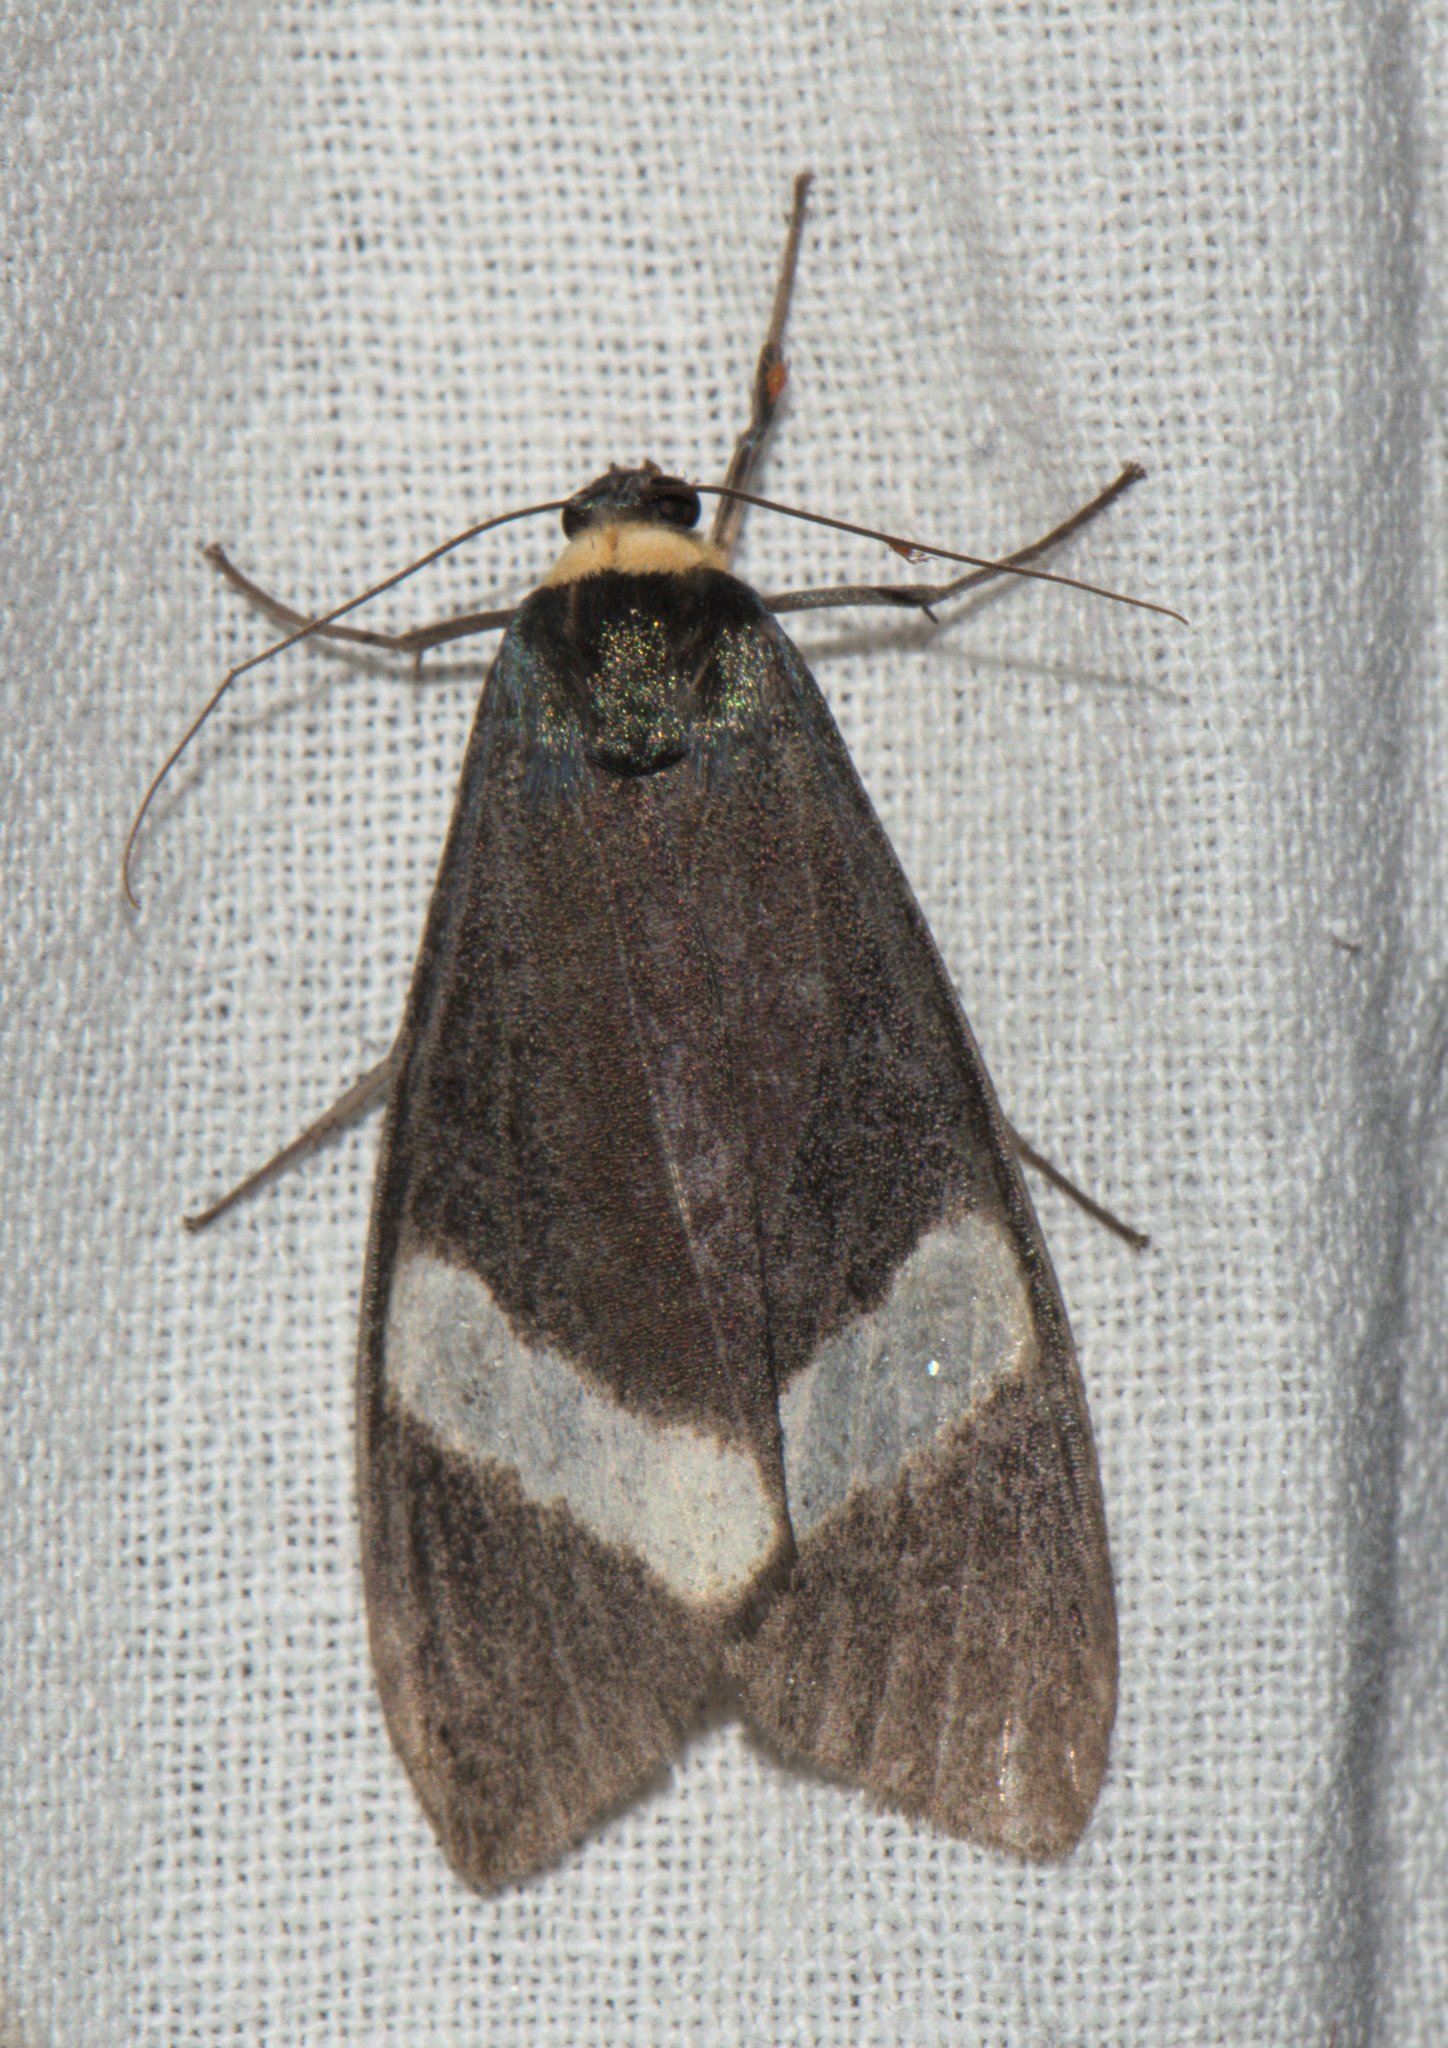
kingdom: Animalia
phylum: Arthropoda
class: Insecta
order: Lepidoptera
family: Erebidae
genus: Macrobrochis
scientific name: Macrobrochis albifascia
